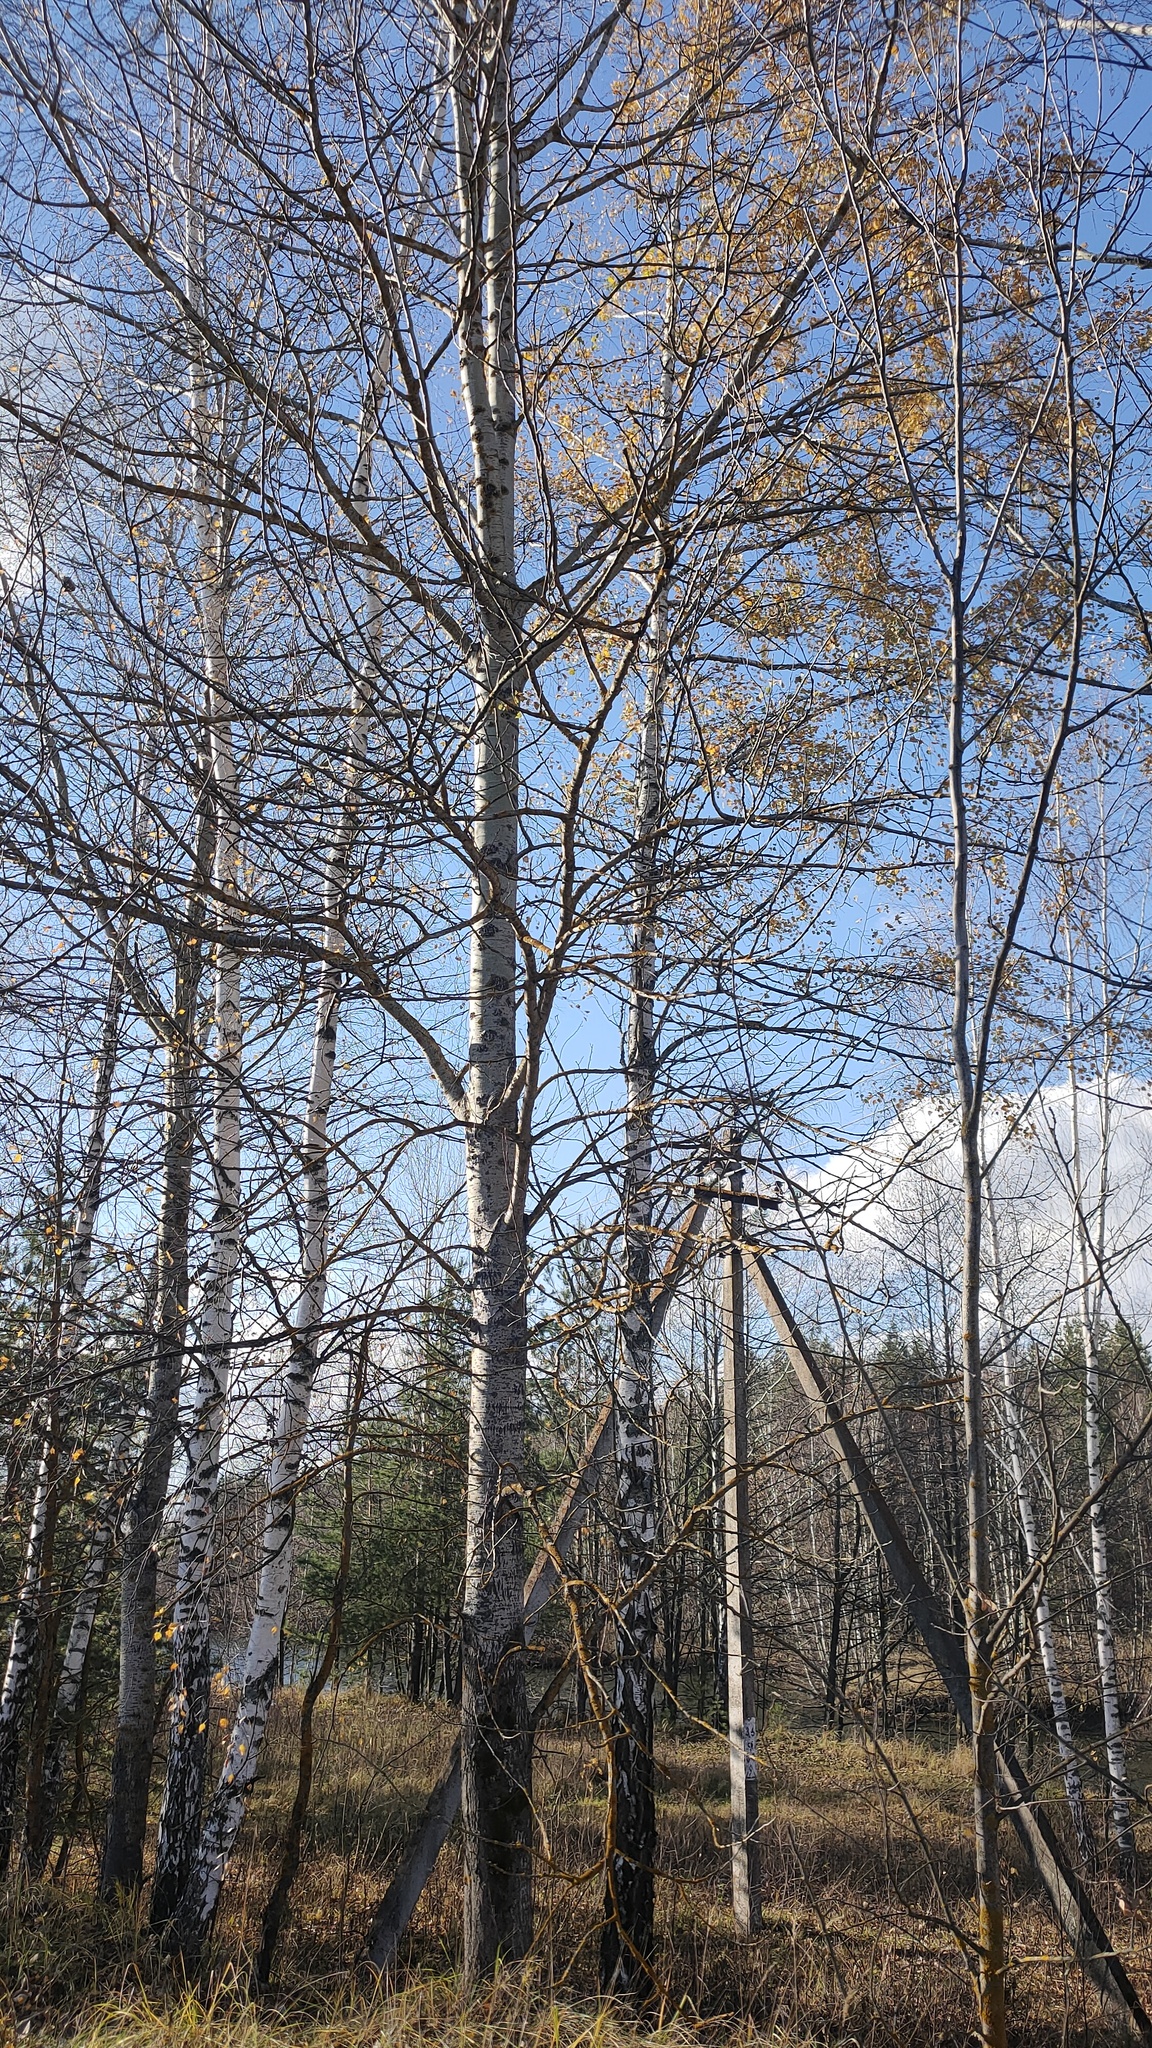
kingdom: Plantae
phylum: Tracheophyta
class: Magnoliopsida
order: Malpighiales
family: Salicaceae
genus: Populus
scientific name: Populus tremula
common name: European aspen
